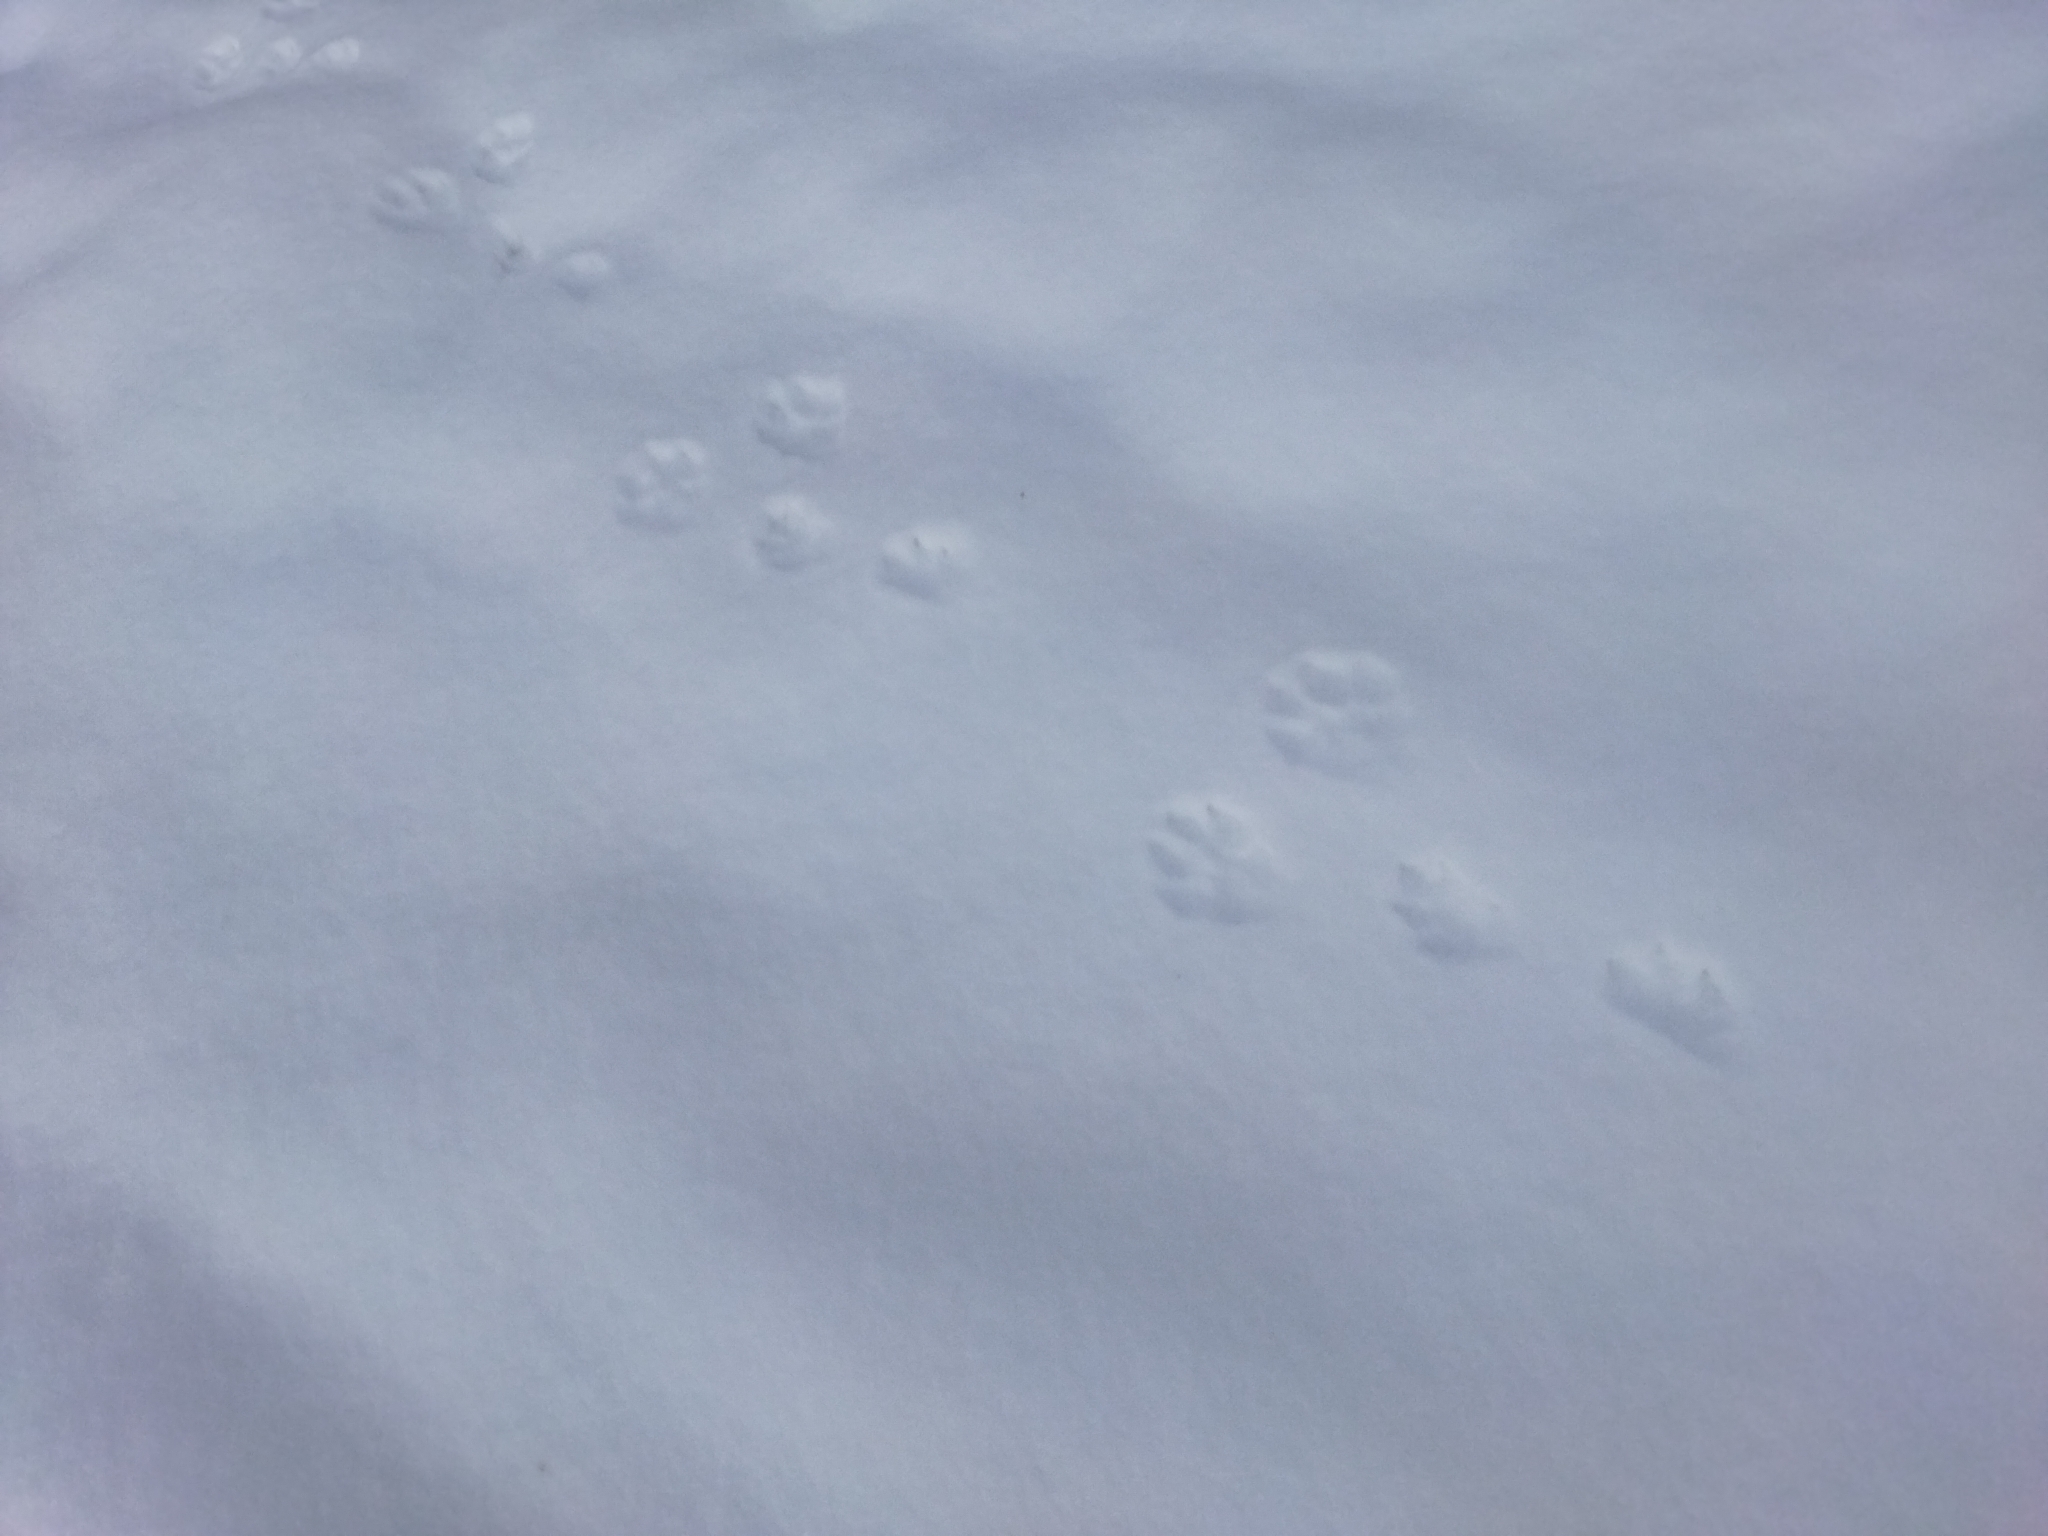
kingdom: Animalia
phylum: Chordata
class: Mammalia
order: Lagomorpha
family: Leporidae
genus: Lepus
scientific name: Lepus europaeus
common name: European hare
